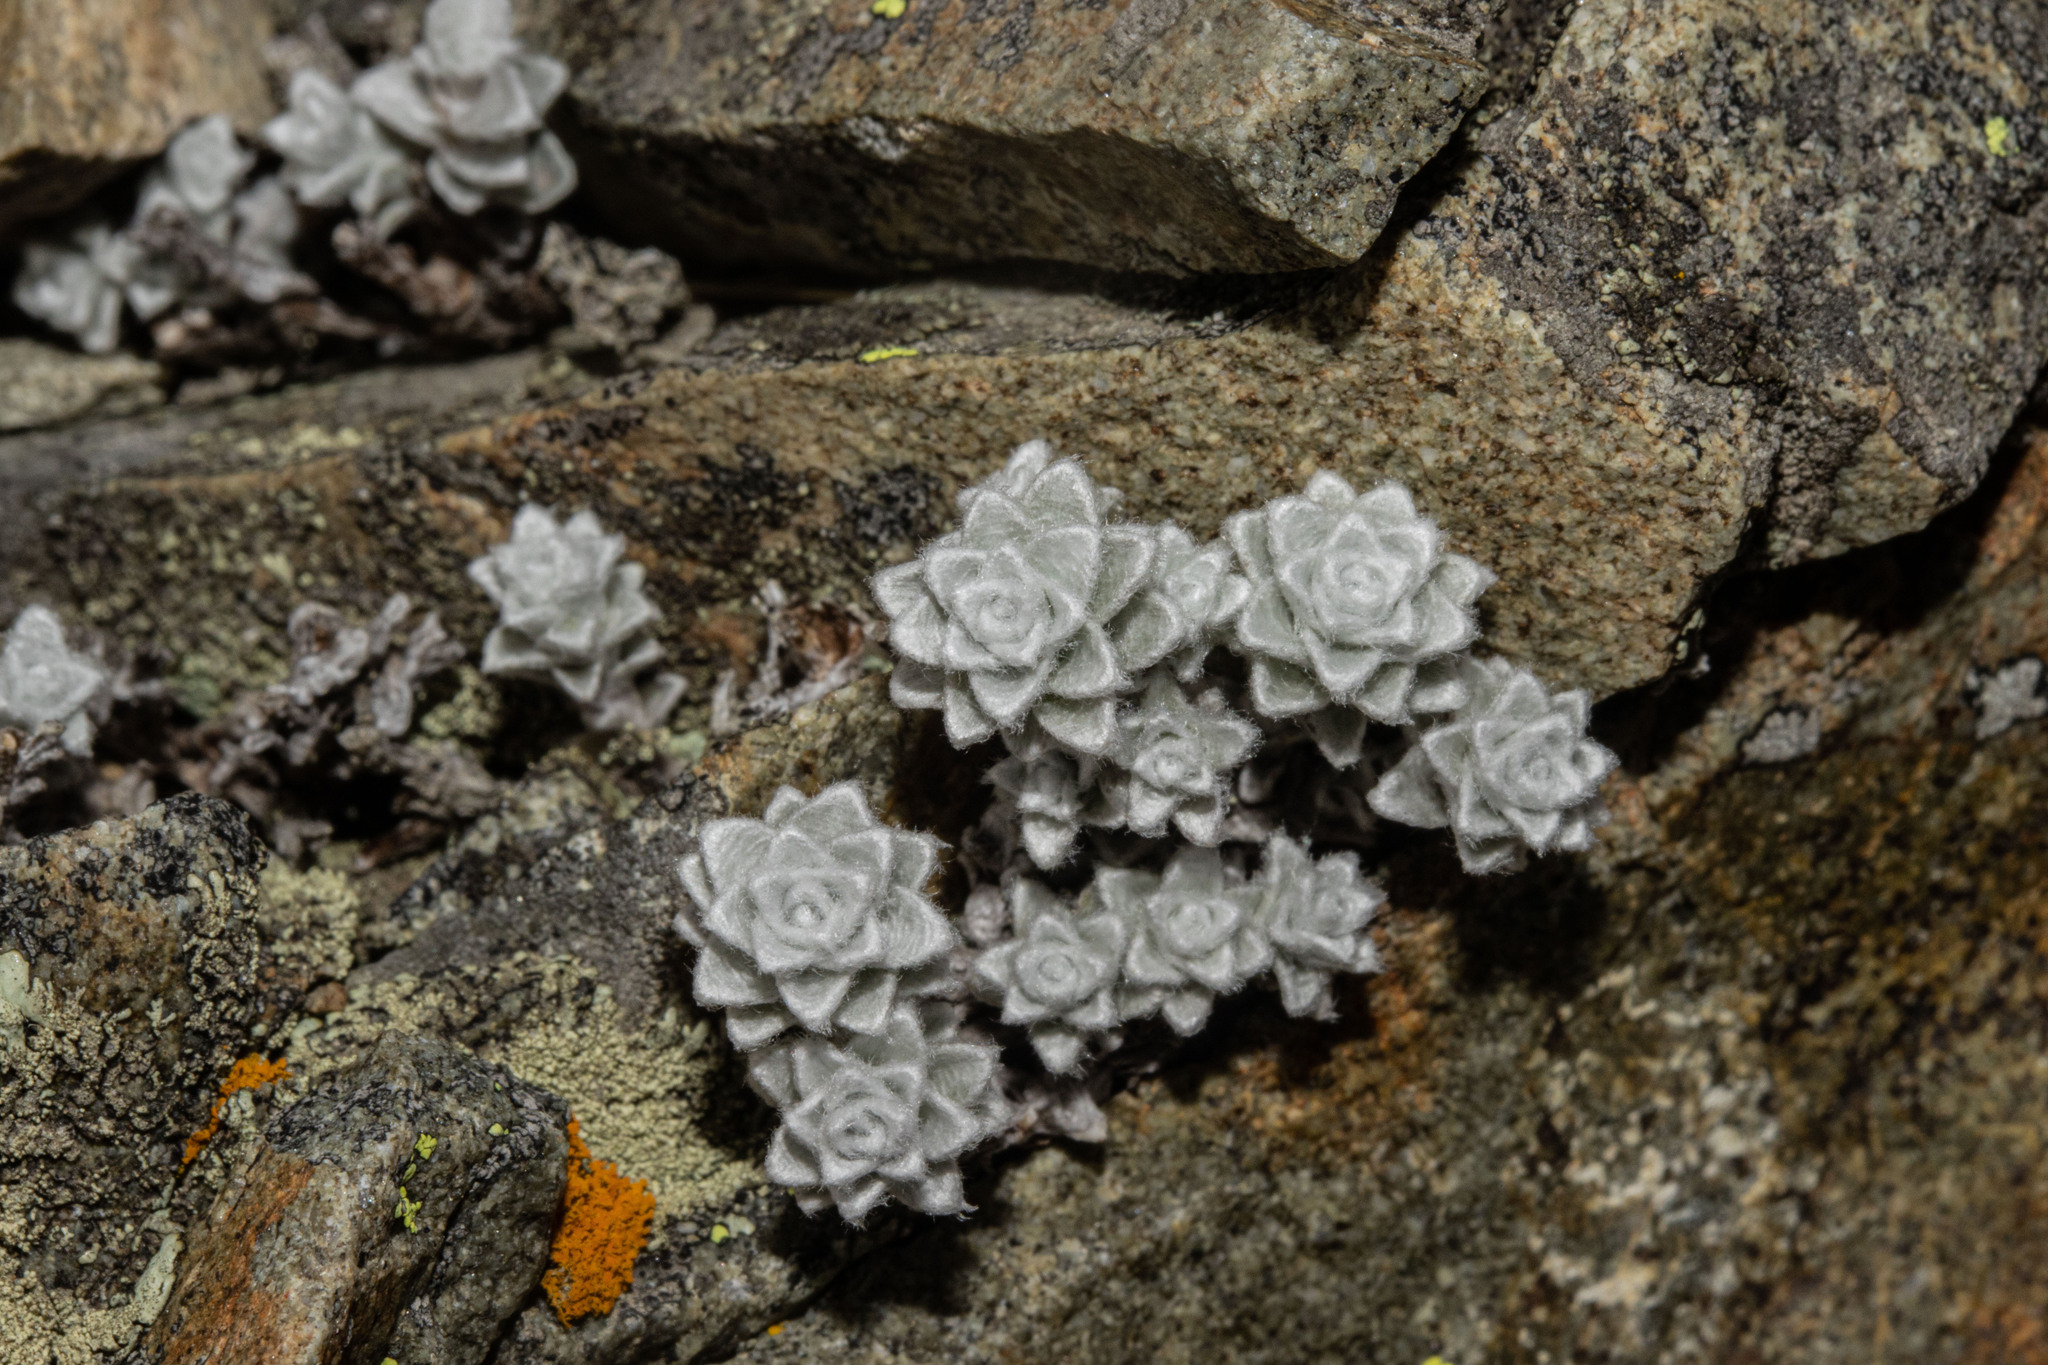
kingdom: Plantae
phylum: Tracheophyta
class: Magnoliopsida
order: Asterales
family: Asteraceae
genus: Leucogenes
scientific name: Leucogenes grandiceps
